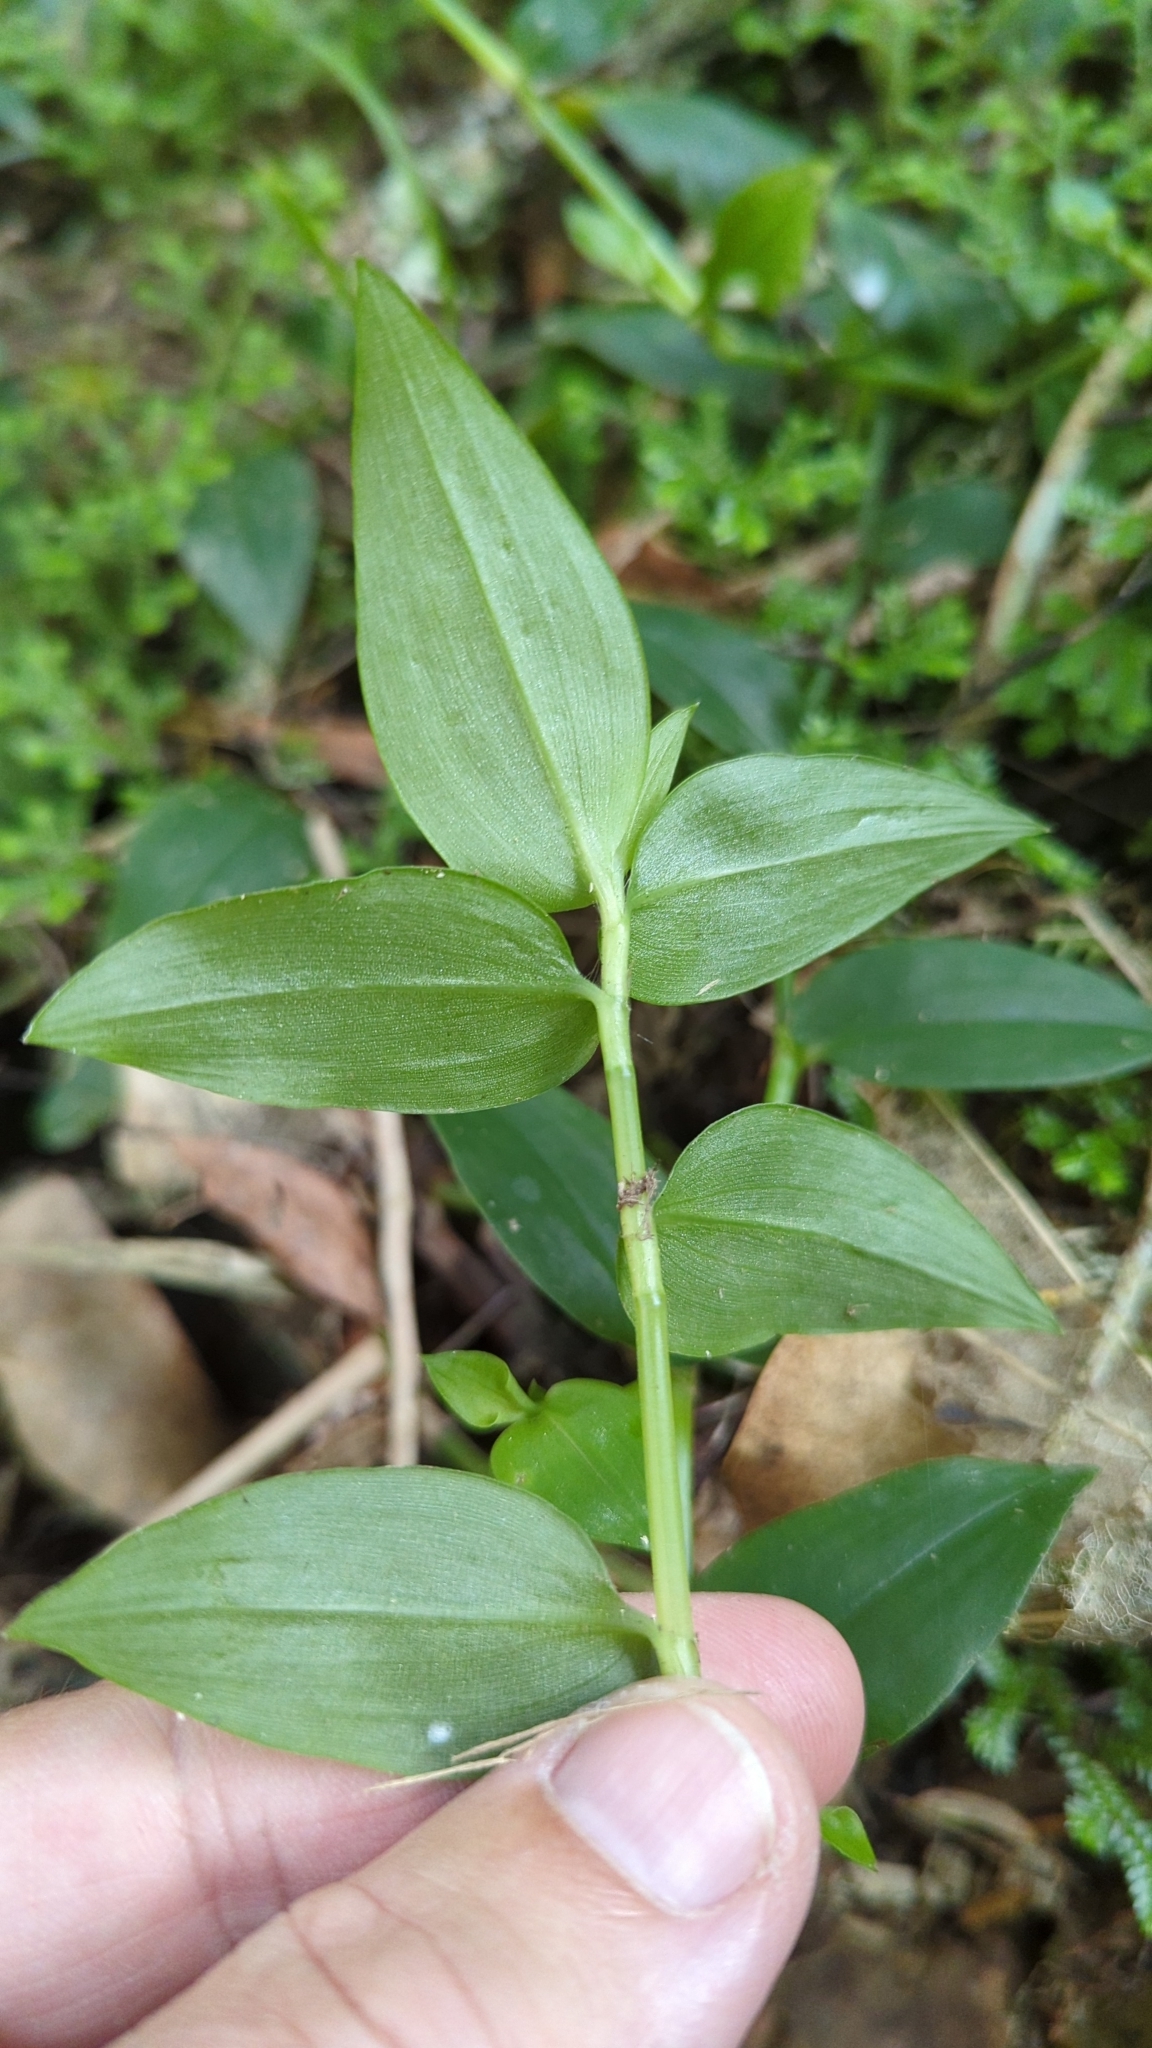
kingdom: Plantae
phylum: Tracheophyta
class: Liliopsida
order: Commelinales
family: Commelinaceae
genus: Tradescantia
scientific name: Tradescantia fluminensis
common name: Wandering-jew
